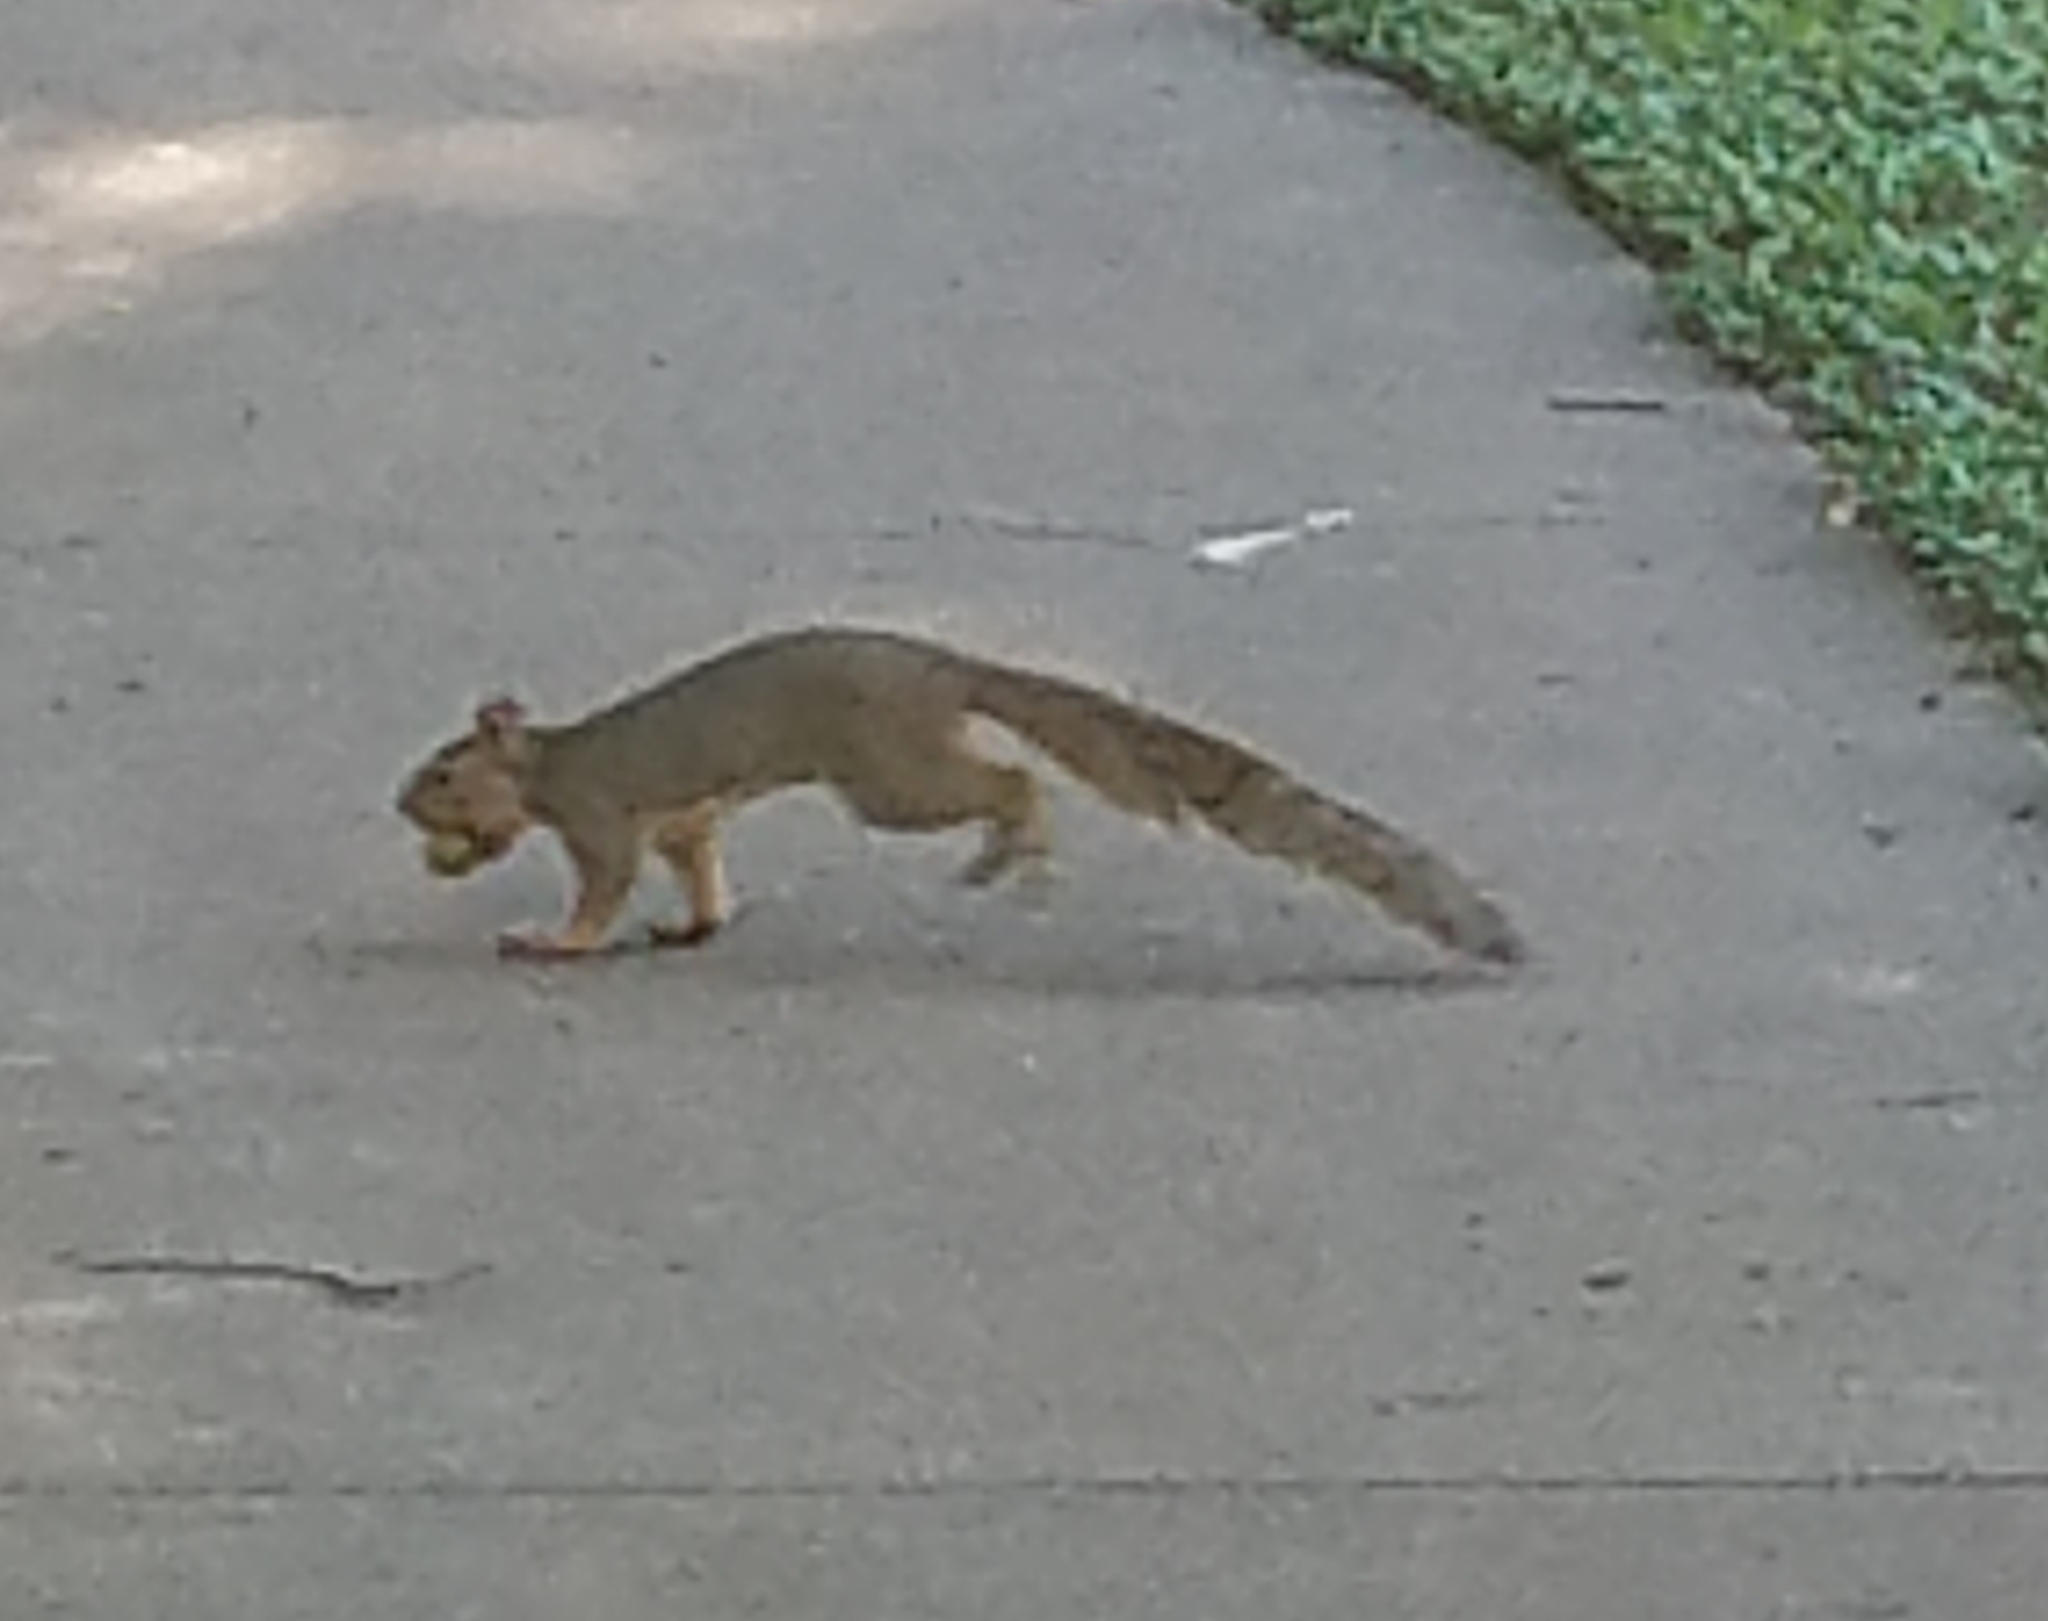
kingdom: Animalia
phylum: Chordata
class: Mammalia
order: Rodentia
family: Sciuridae
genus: Sciurus
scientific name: Sciurus niger
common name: Fox squirrel
